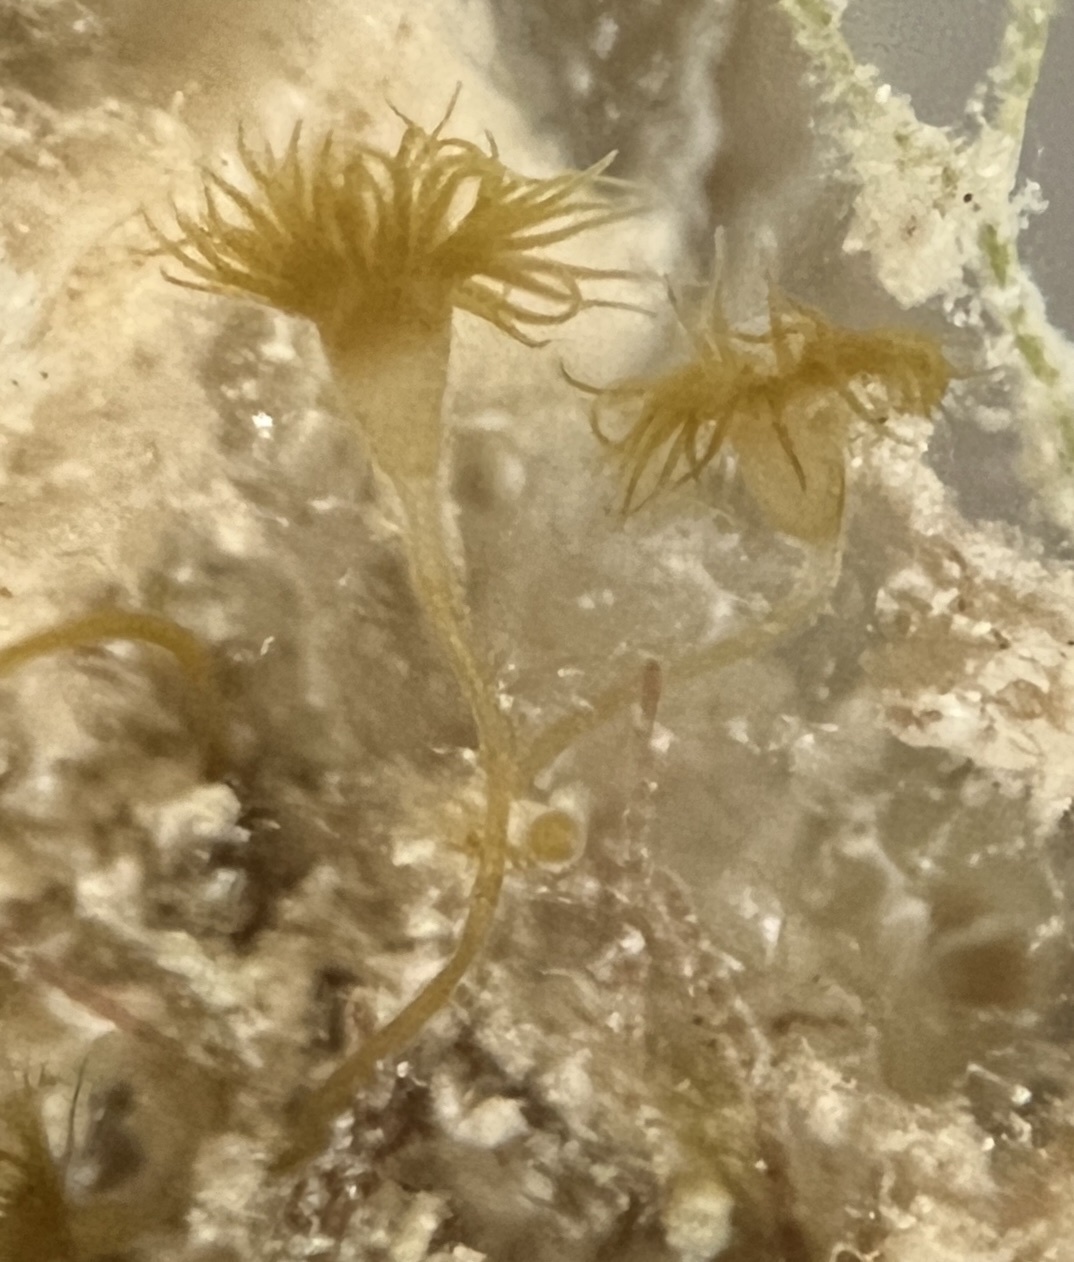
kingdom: Animalia
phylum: Cnidaria
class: Hydrozoa
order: Anthoathecata
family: Eudendriidae
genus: Myrionema
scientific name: Myrionema amboinense
